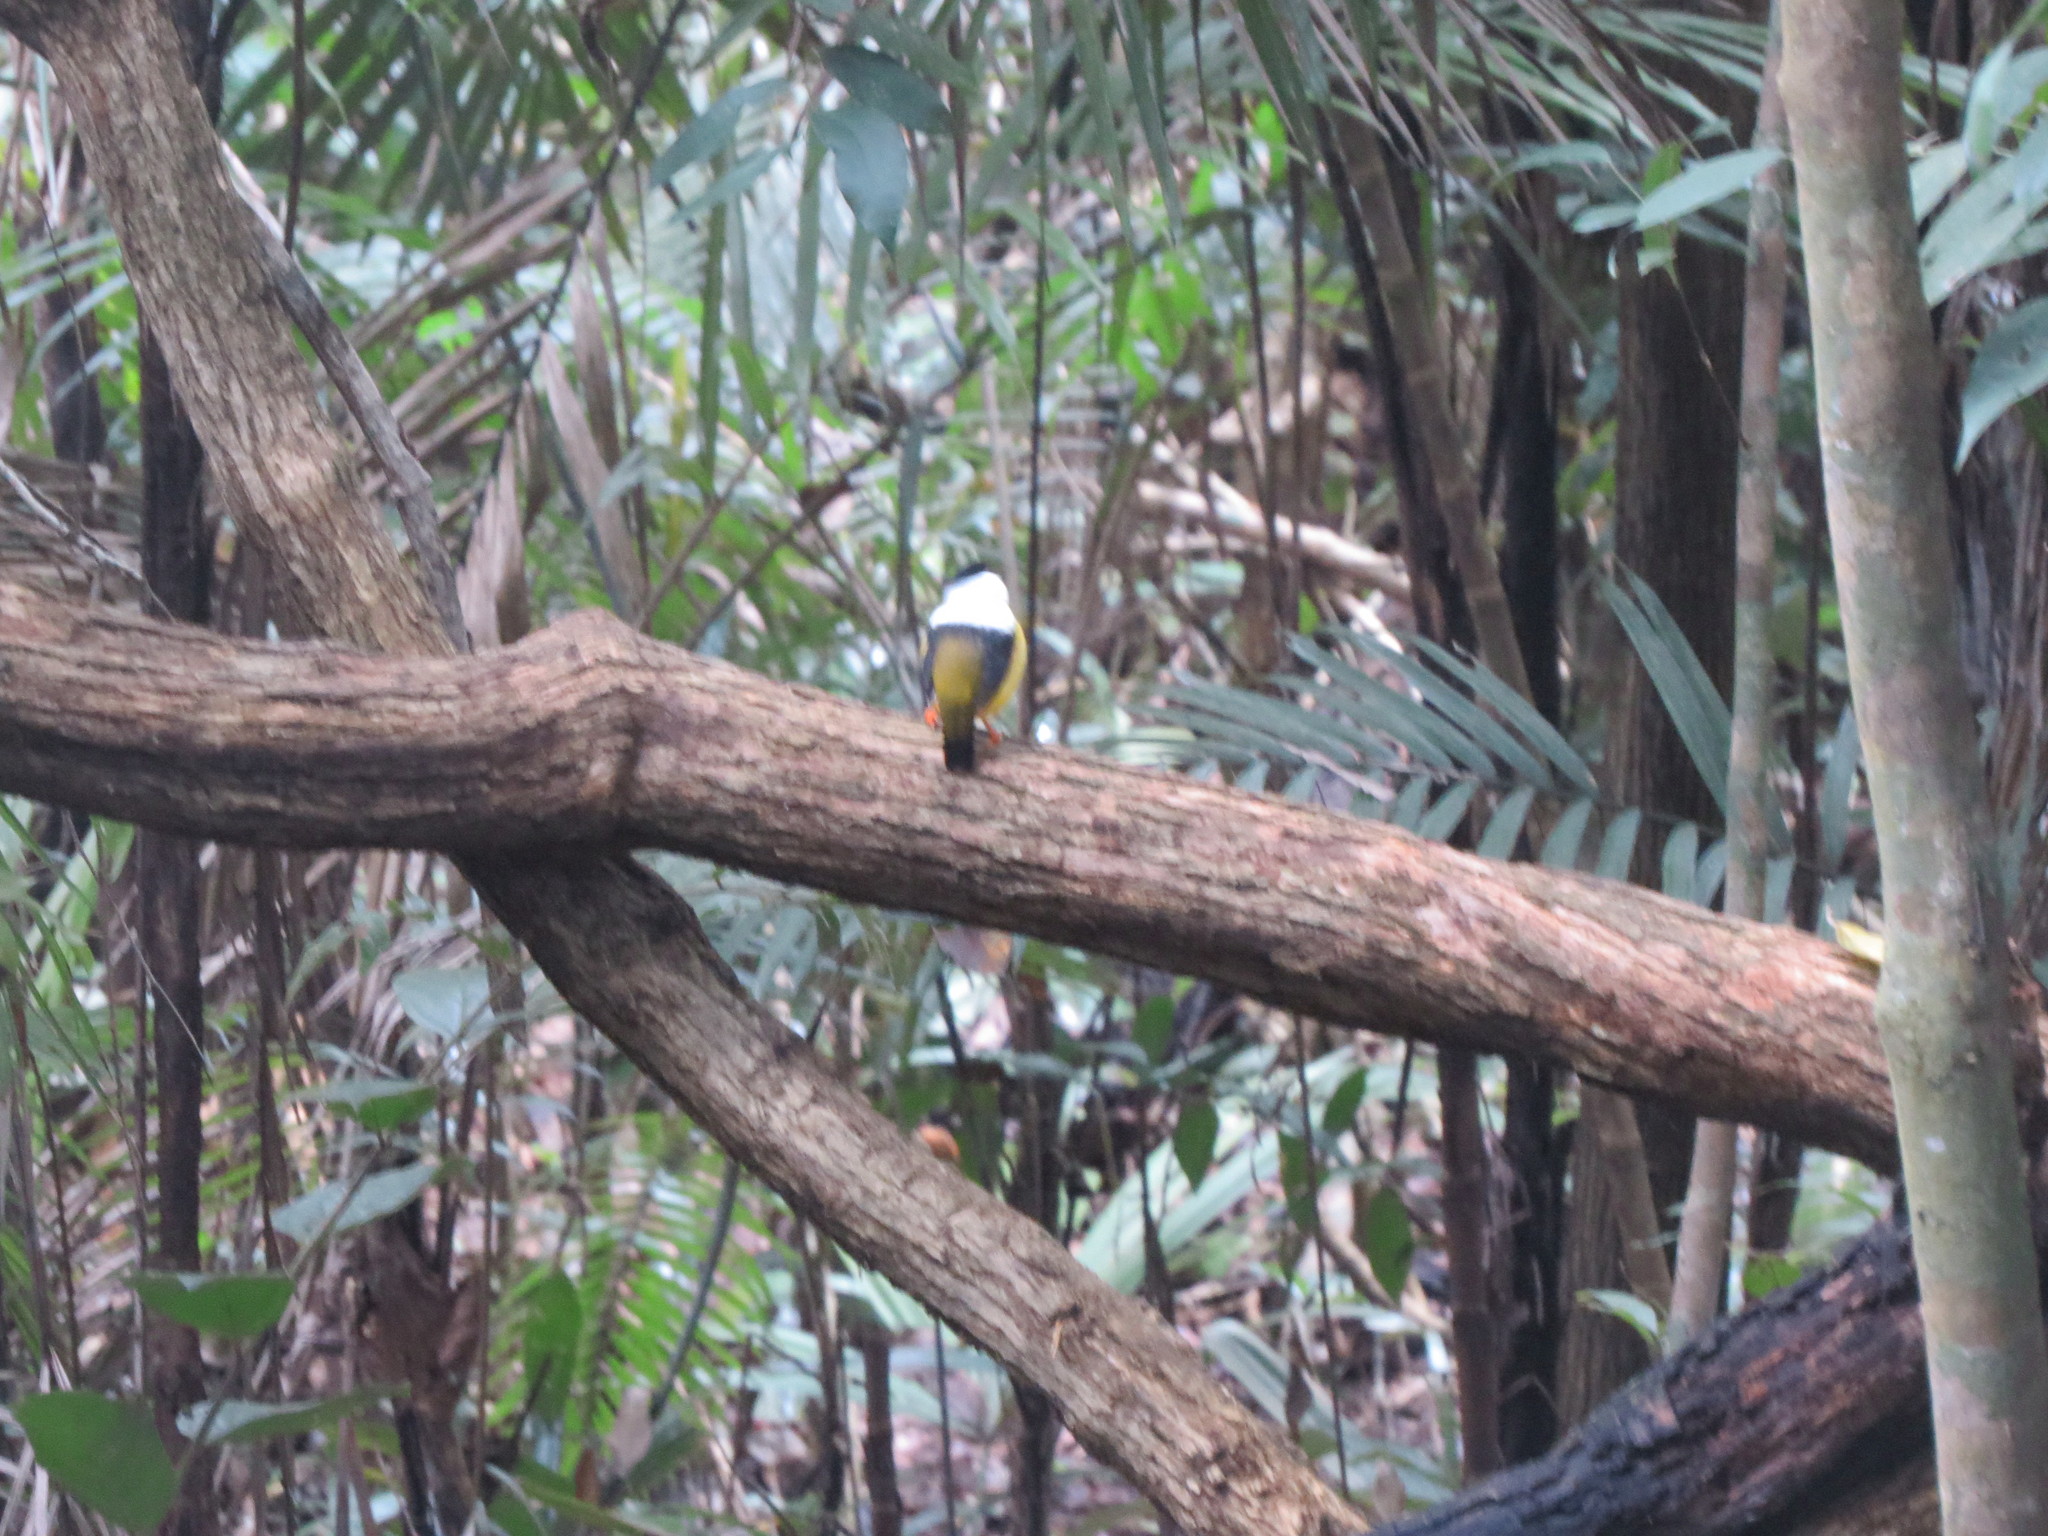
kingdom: Animalia
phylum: Chordata
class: Aves
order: Passeriformes
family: Pipridae
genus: Manacus
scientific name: Manacus candei
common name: White-collared manakin
